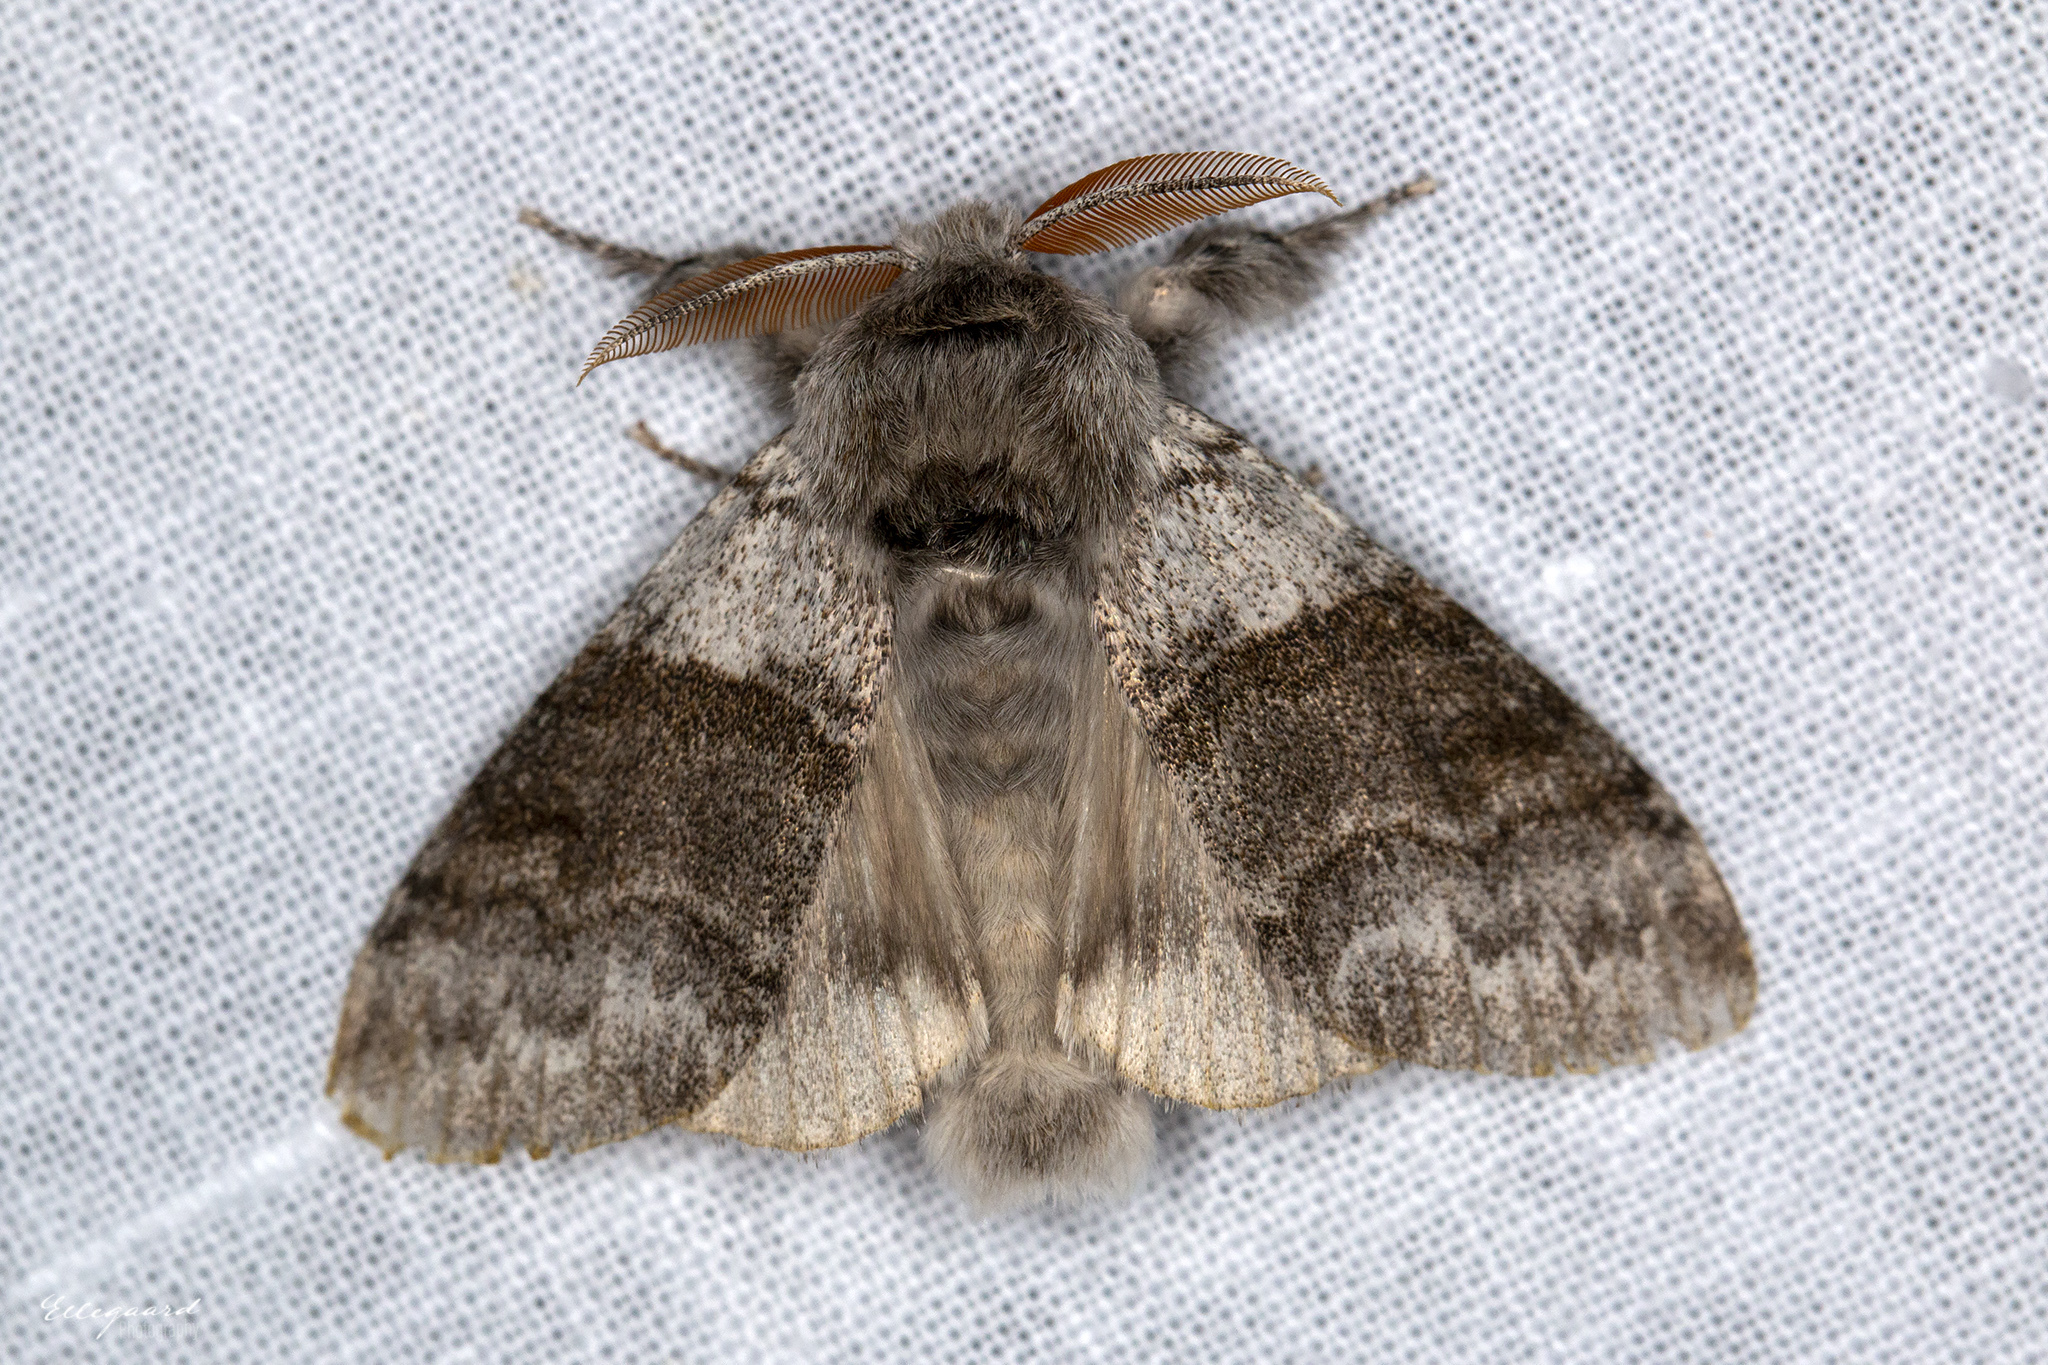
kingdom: Animalia
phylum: Arthropoda
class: Insecta
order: Lepidoptera
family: Erebidae
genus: Calliteara
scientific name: Calliteara pudibunda
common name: Pale tussock
